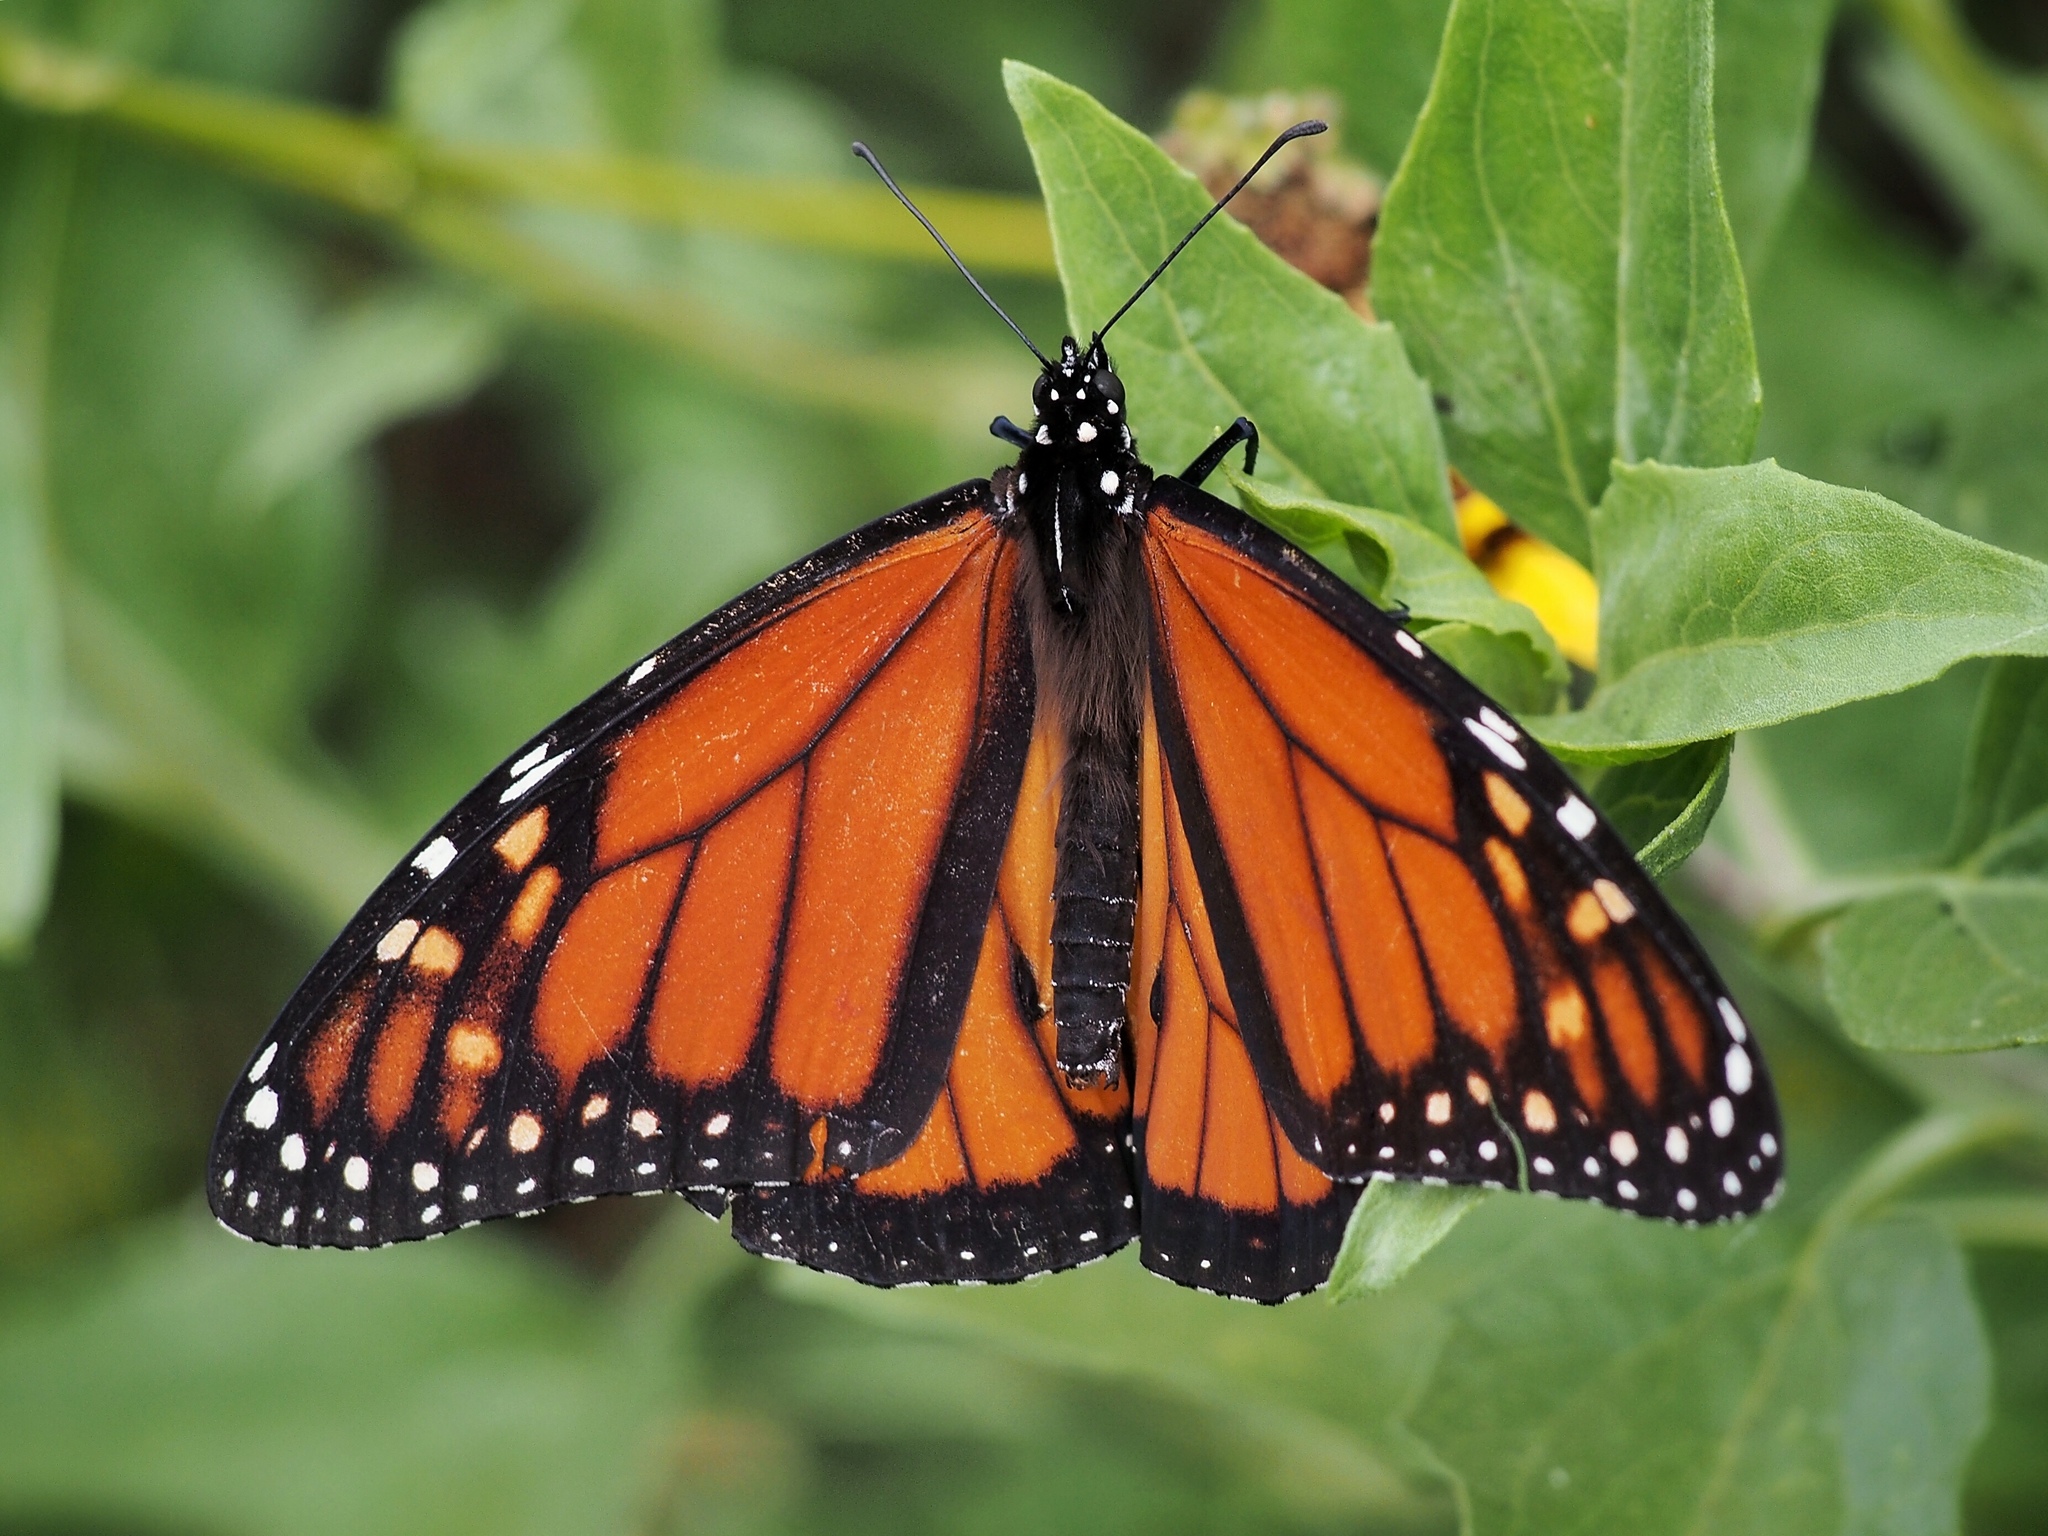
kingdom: Animalia
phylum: Arthropoda
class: Insecta
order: Lepidoptera
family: Nymphalidae
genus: Danaus
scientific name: Danaus plexippus
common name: Monarch
